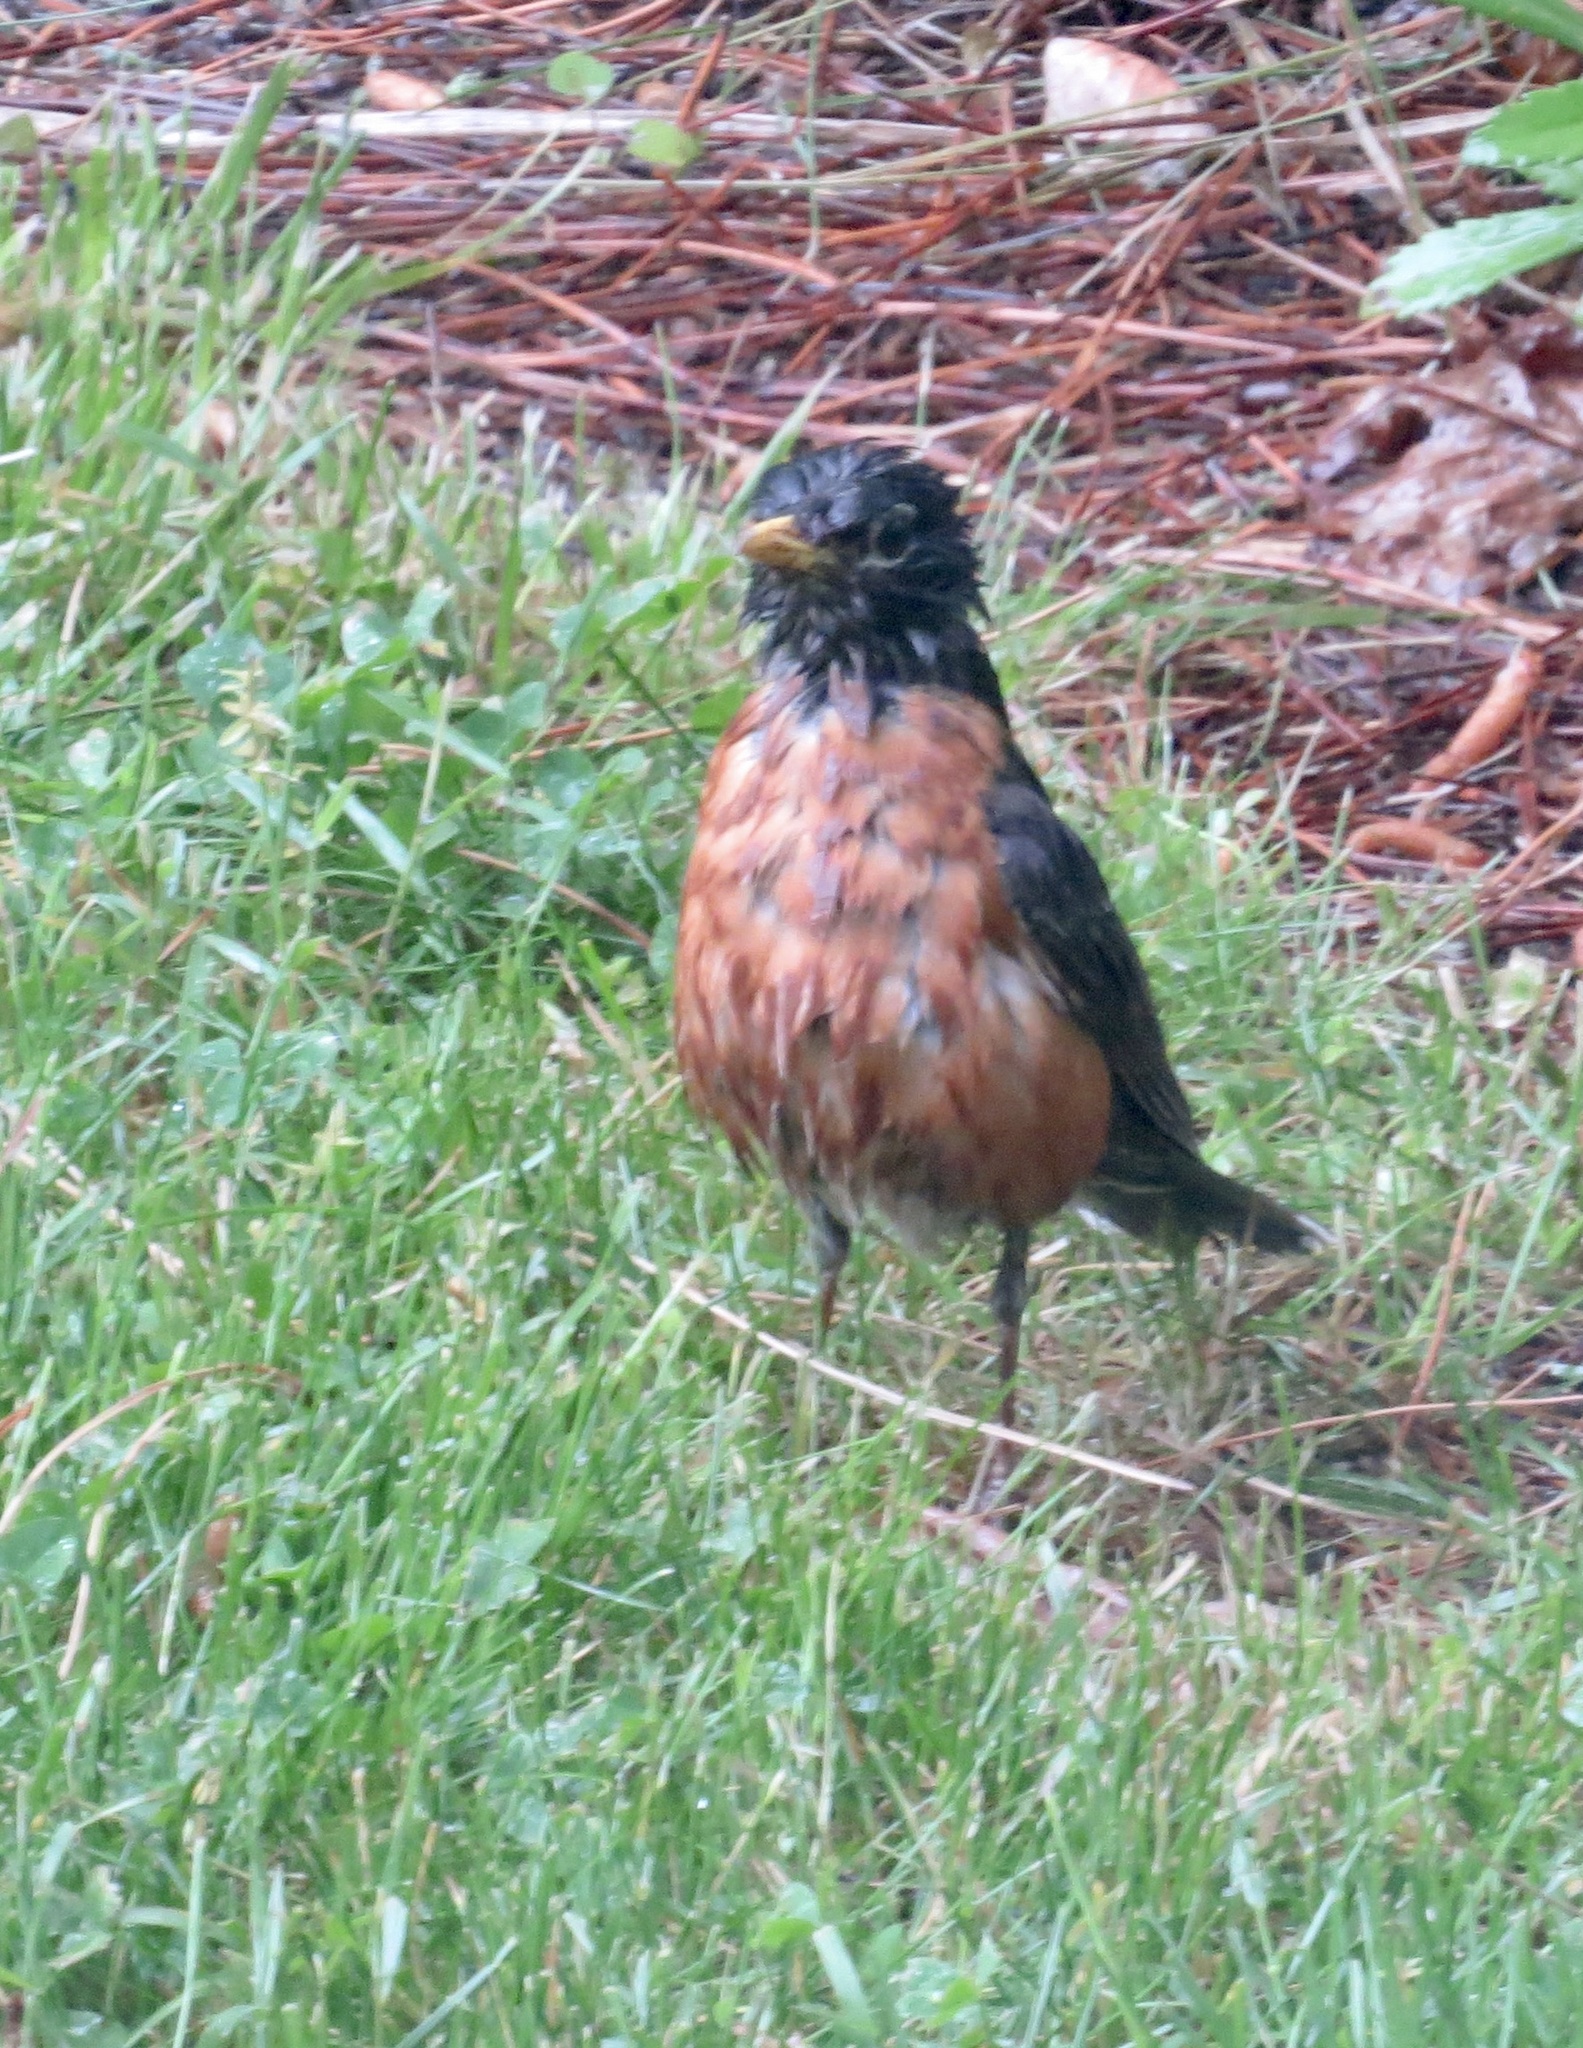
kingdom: Animalia
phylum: Chordata
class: Aves
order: Passeriformes
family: Turdidae
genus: Turdus
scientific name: Turdus migratorius
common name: American robin
